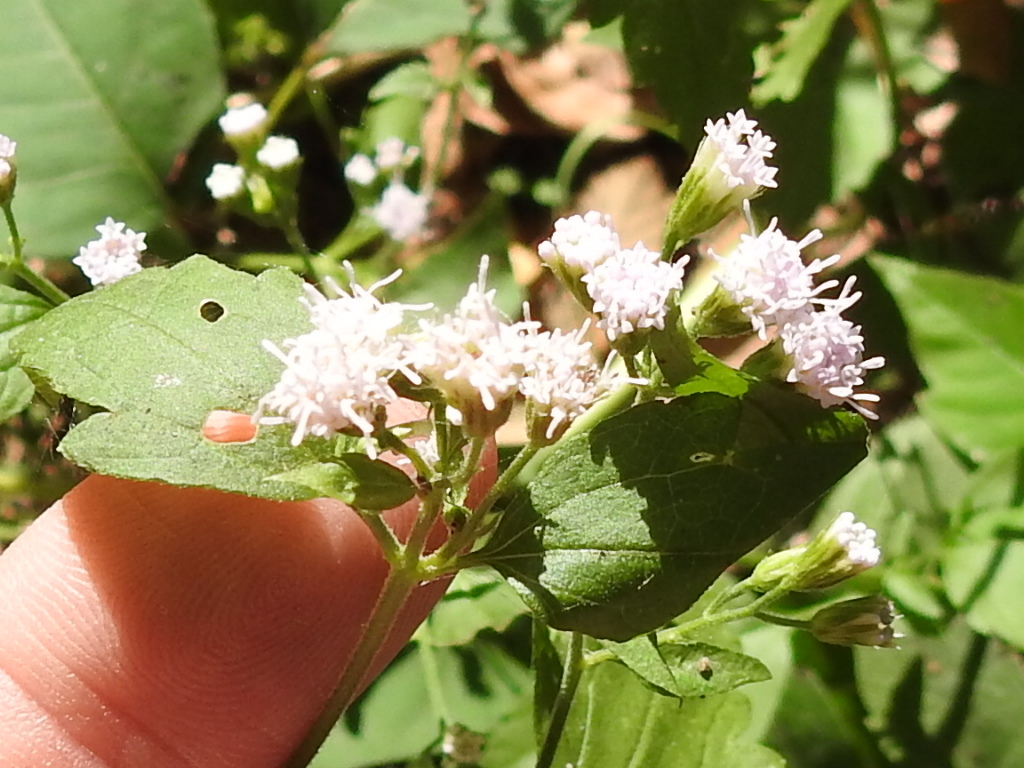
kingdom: Plantae
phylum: Tracheophyta
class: Magnoliopsida
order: Asterales
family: Asteraceae
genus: Ageratina
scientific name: Ageratina havanensis
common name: Havana snakeroot
